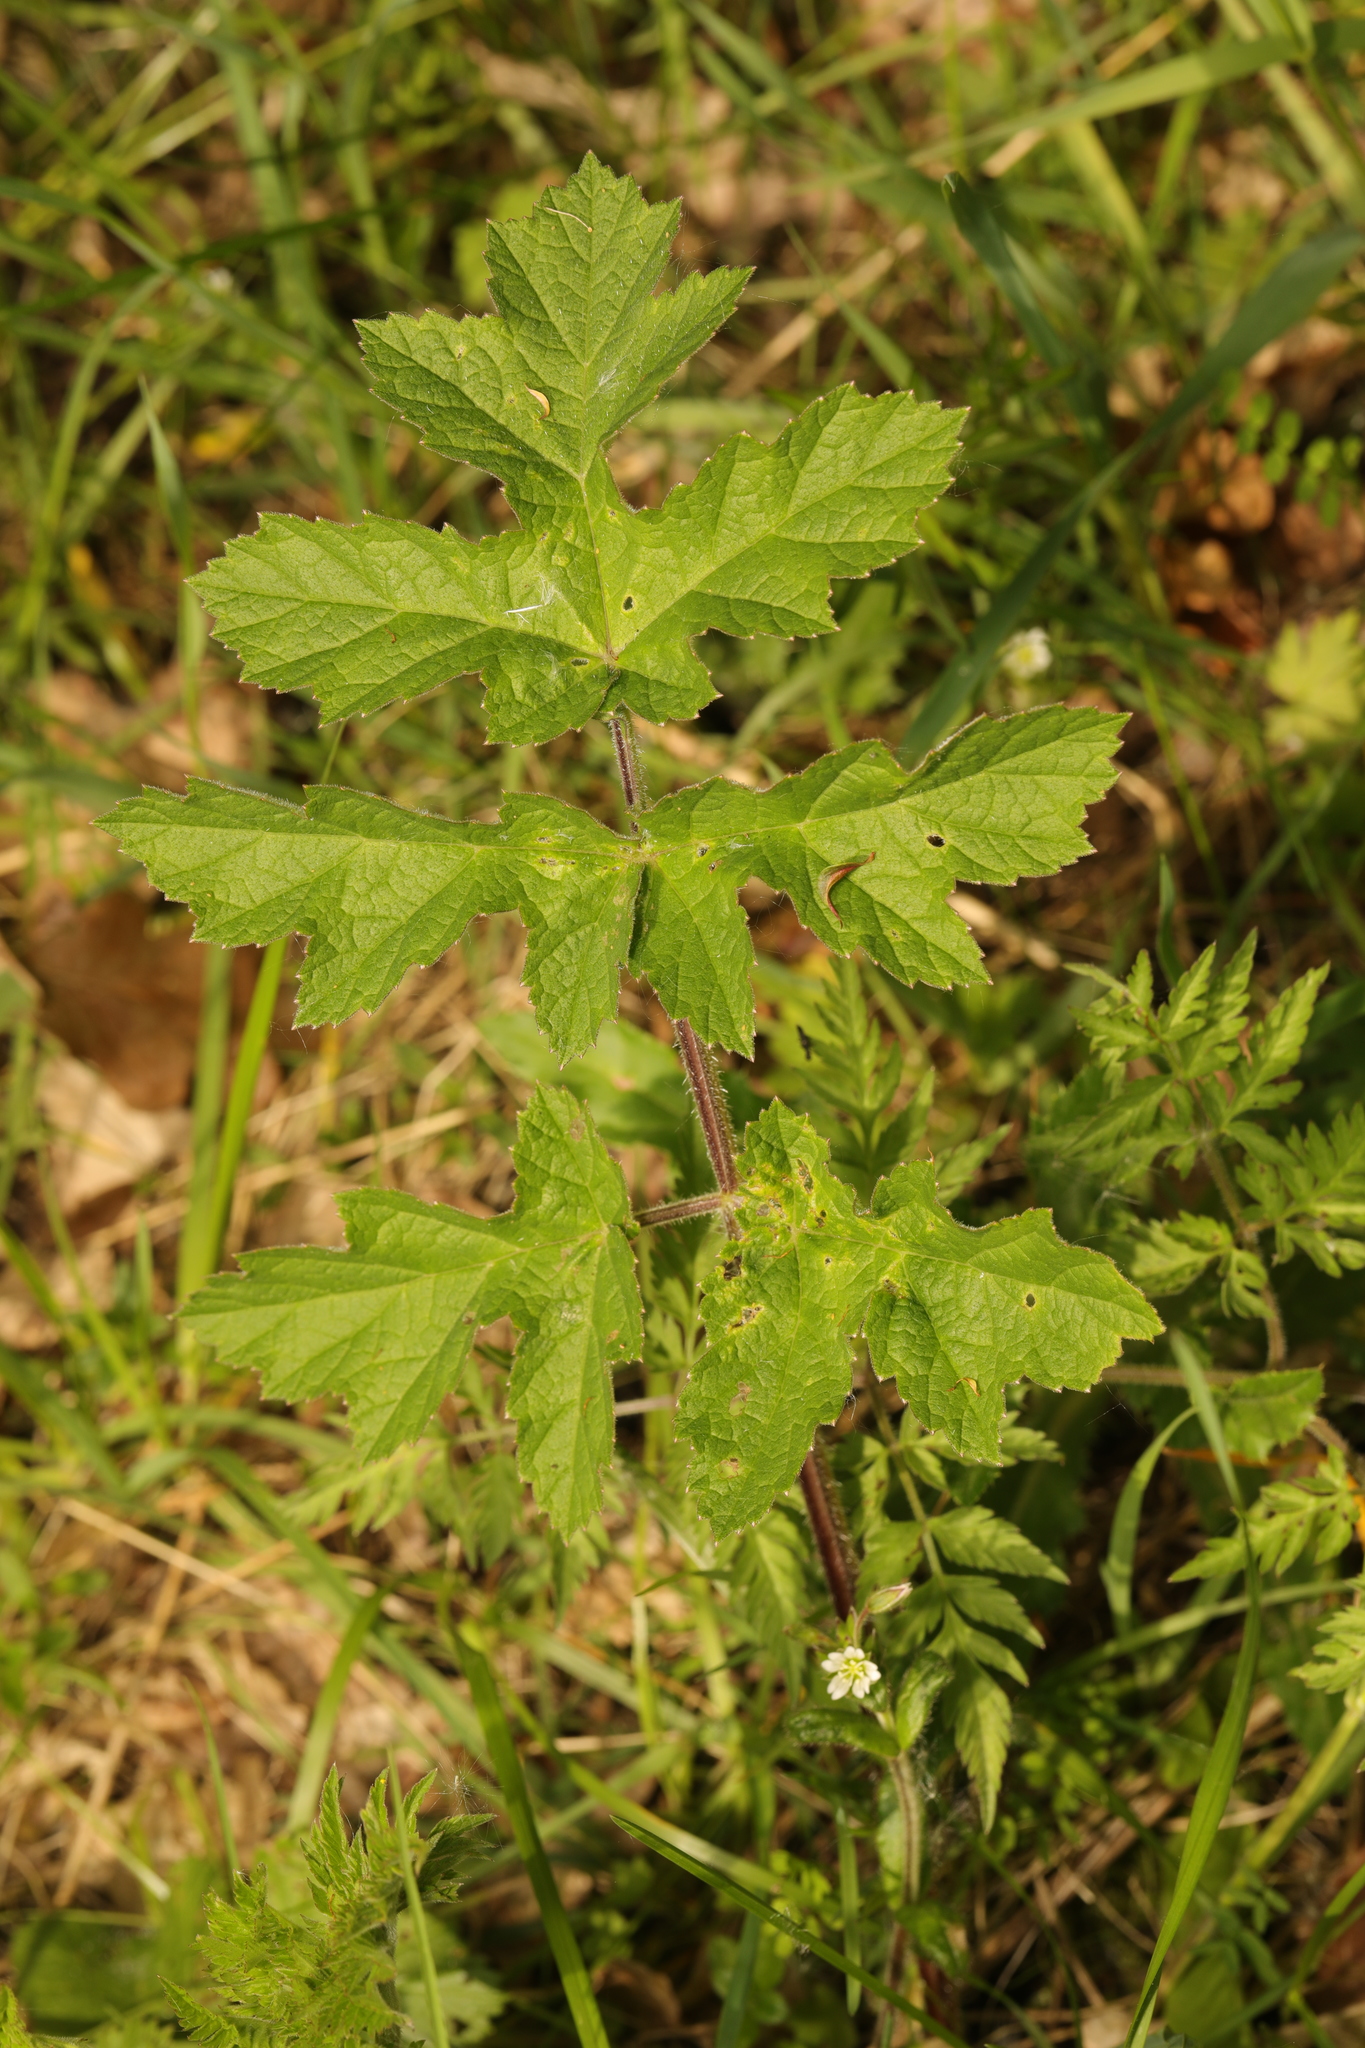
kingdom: Plantae
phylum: Tracheophyta
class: Magnoliopsida
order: Apiales
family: Apiaceae
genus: Heracleum
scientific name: Heracleum sphondylium
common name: Hogweed
